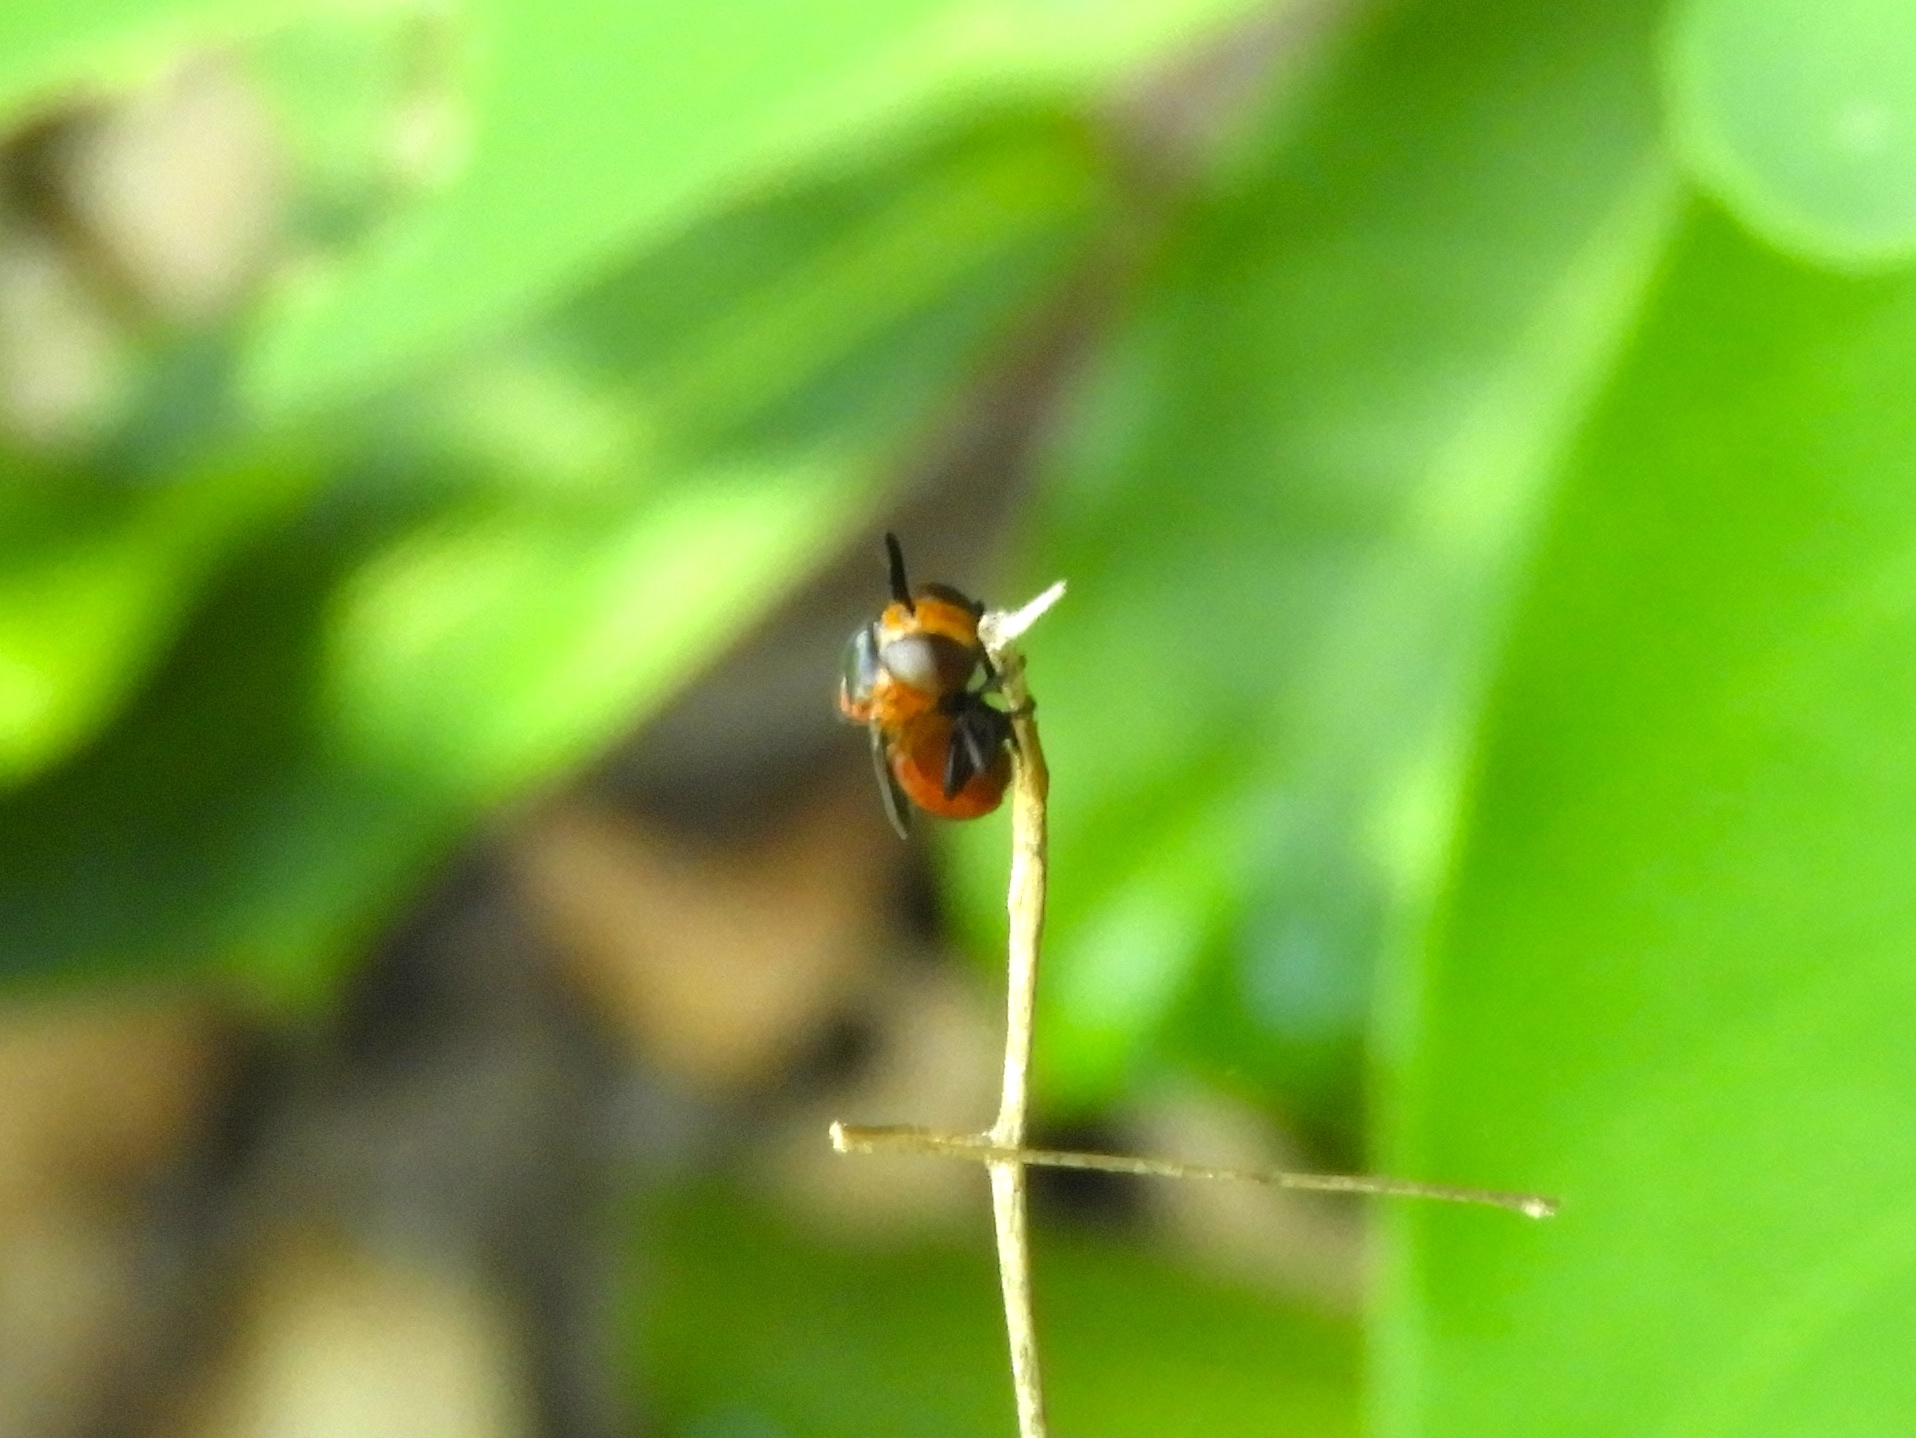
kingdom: Animalia
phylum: Arthropoda
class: Insecta
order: Diptera
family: Syrphidae
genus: Menidon
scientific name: Menidon falcatus
